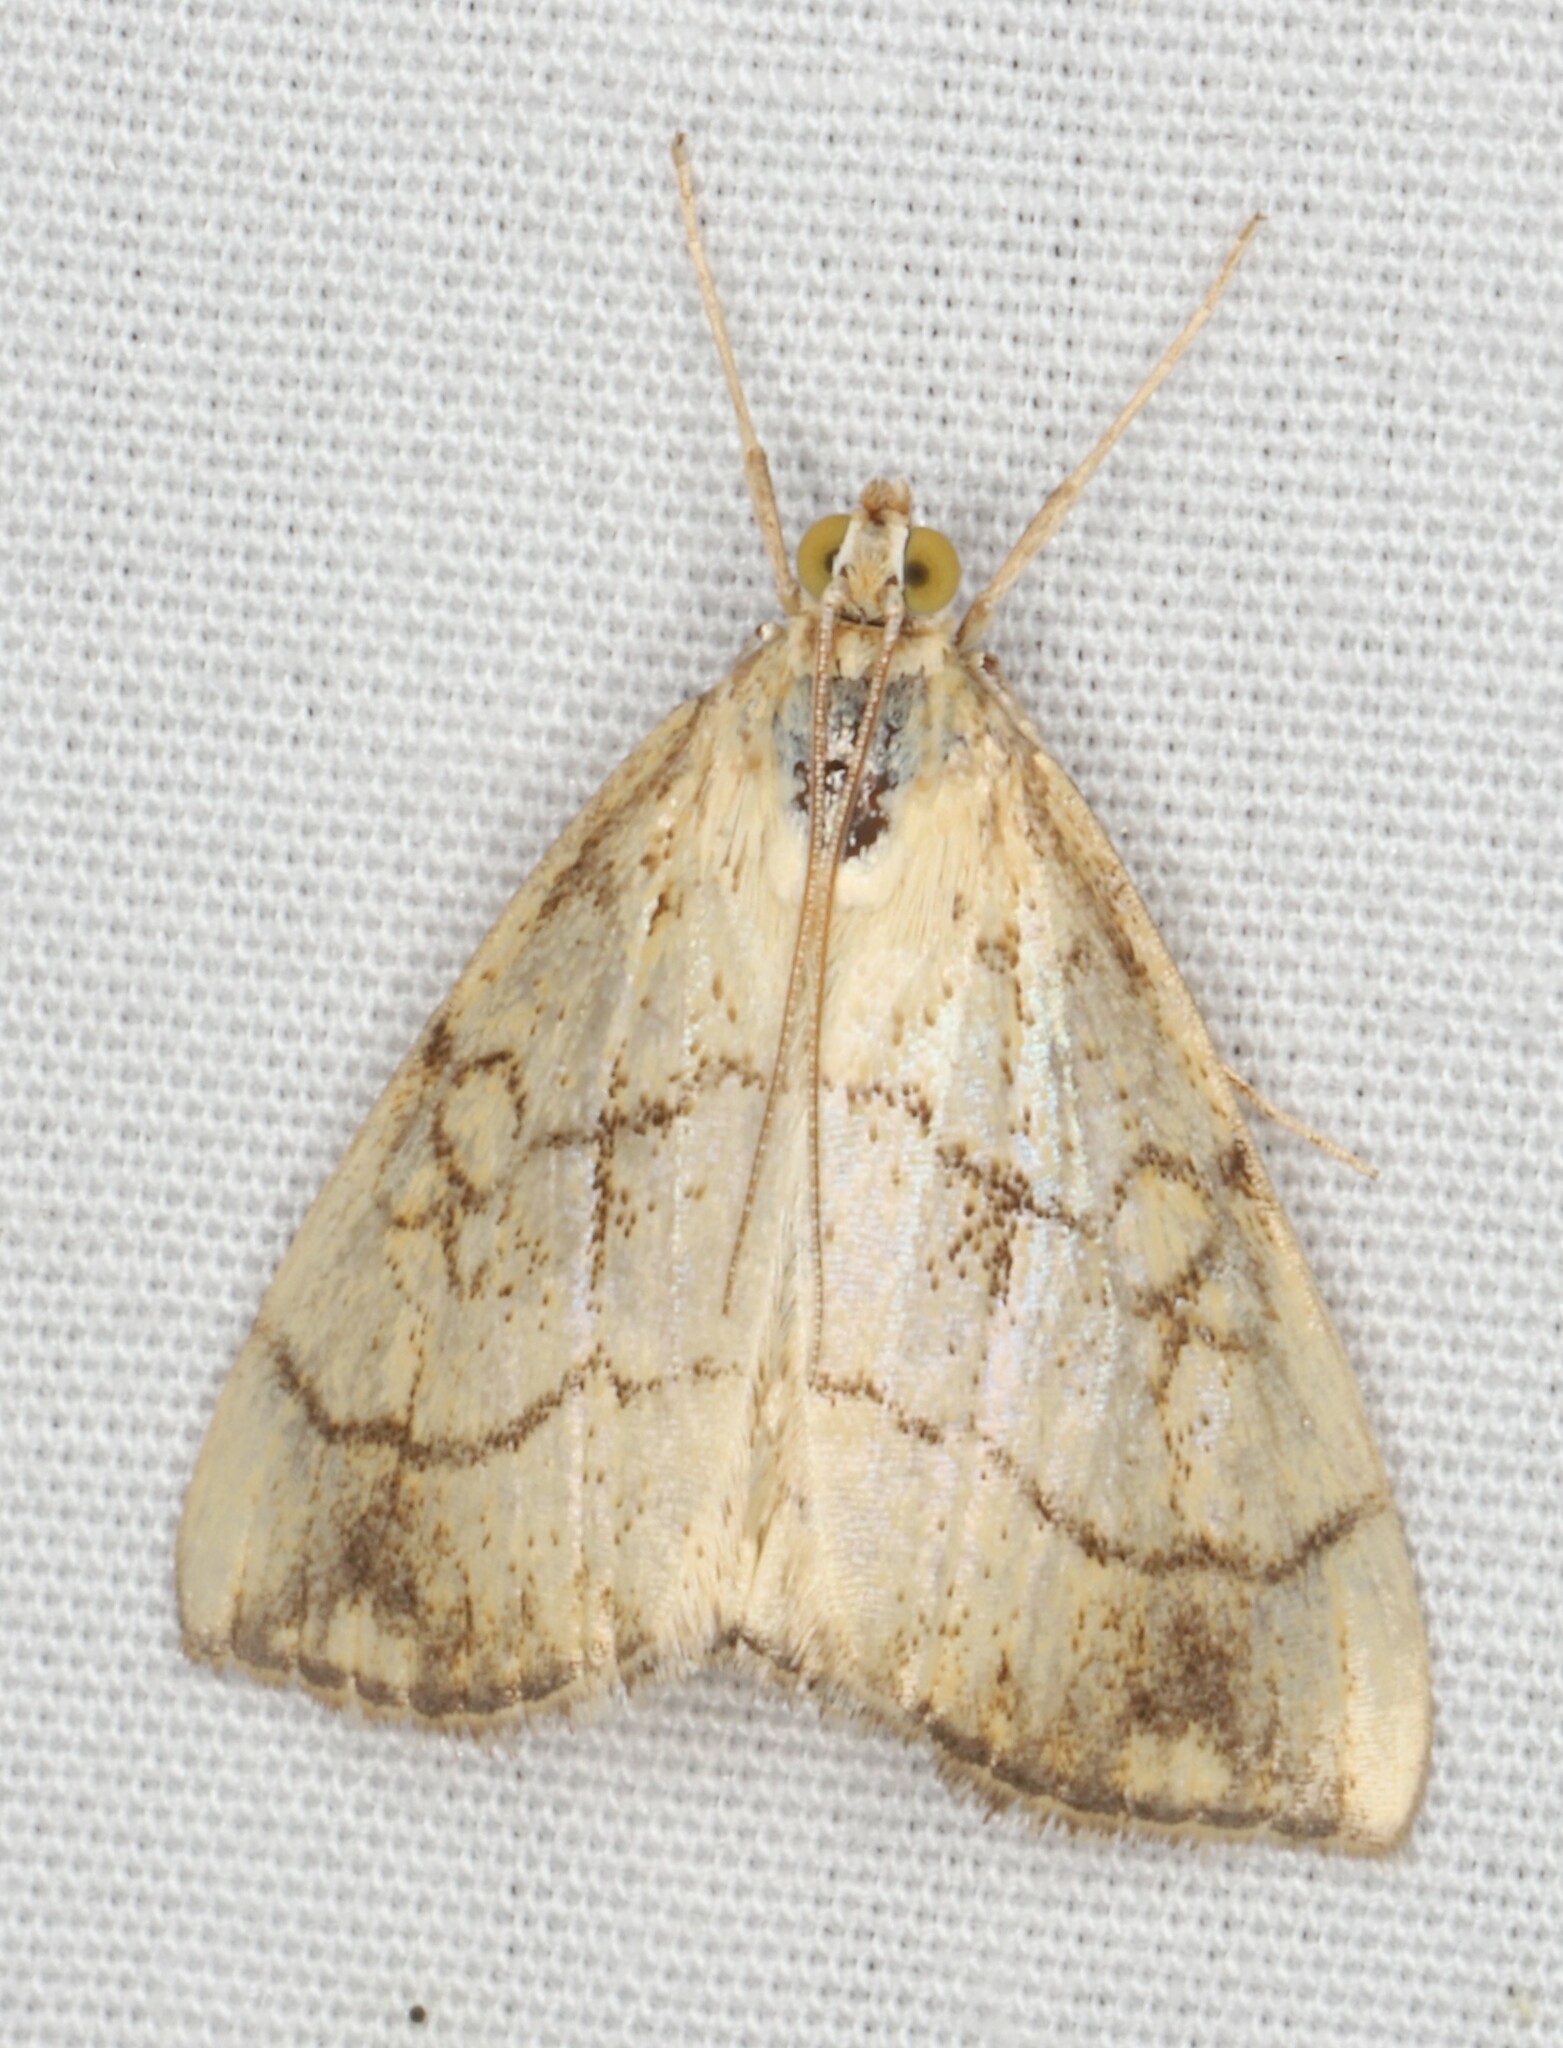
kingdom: Animalia
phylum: Arthropoda
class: Insecta
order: Lepidoptera
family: Crambidae
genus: Evergestis
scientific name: Evergestis pallidata
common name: Chequered pearl
